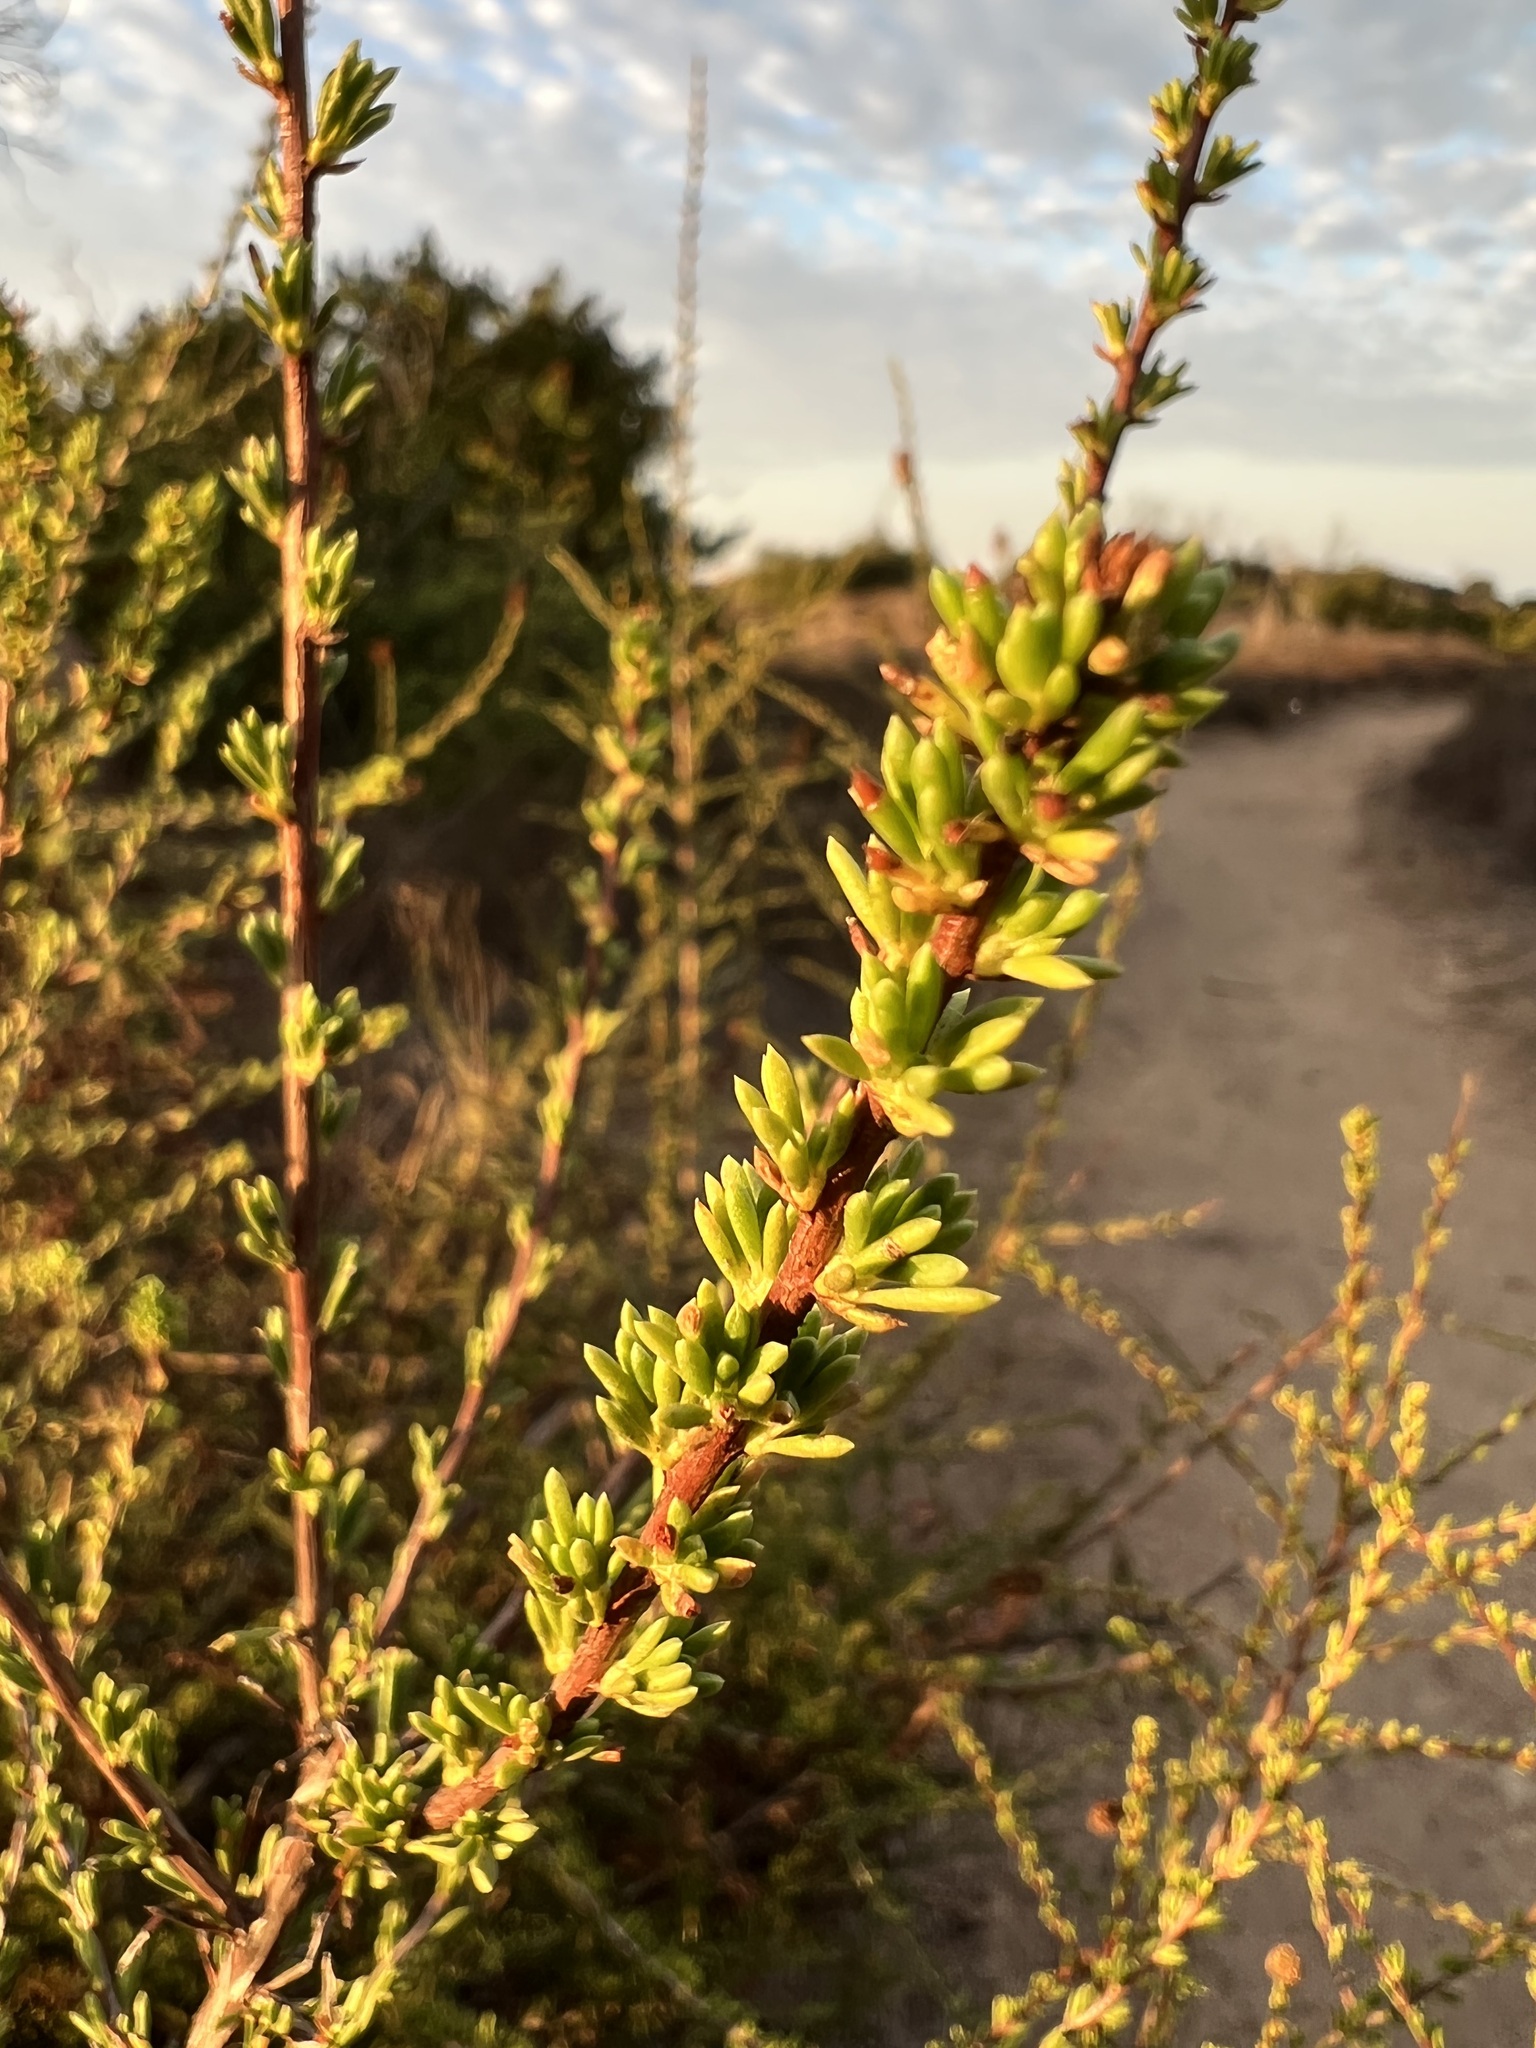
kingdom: Plantae
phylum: Tracheophyta
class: Magnoliopsida
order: Rosales
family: Rosaceae
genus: Adenostoma
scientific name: Adenostoma fasciculatum
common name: Chamise
